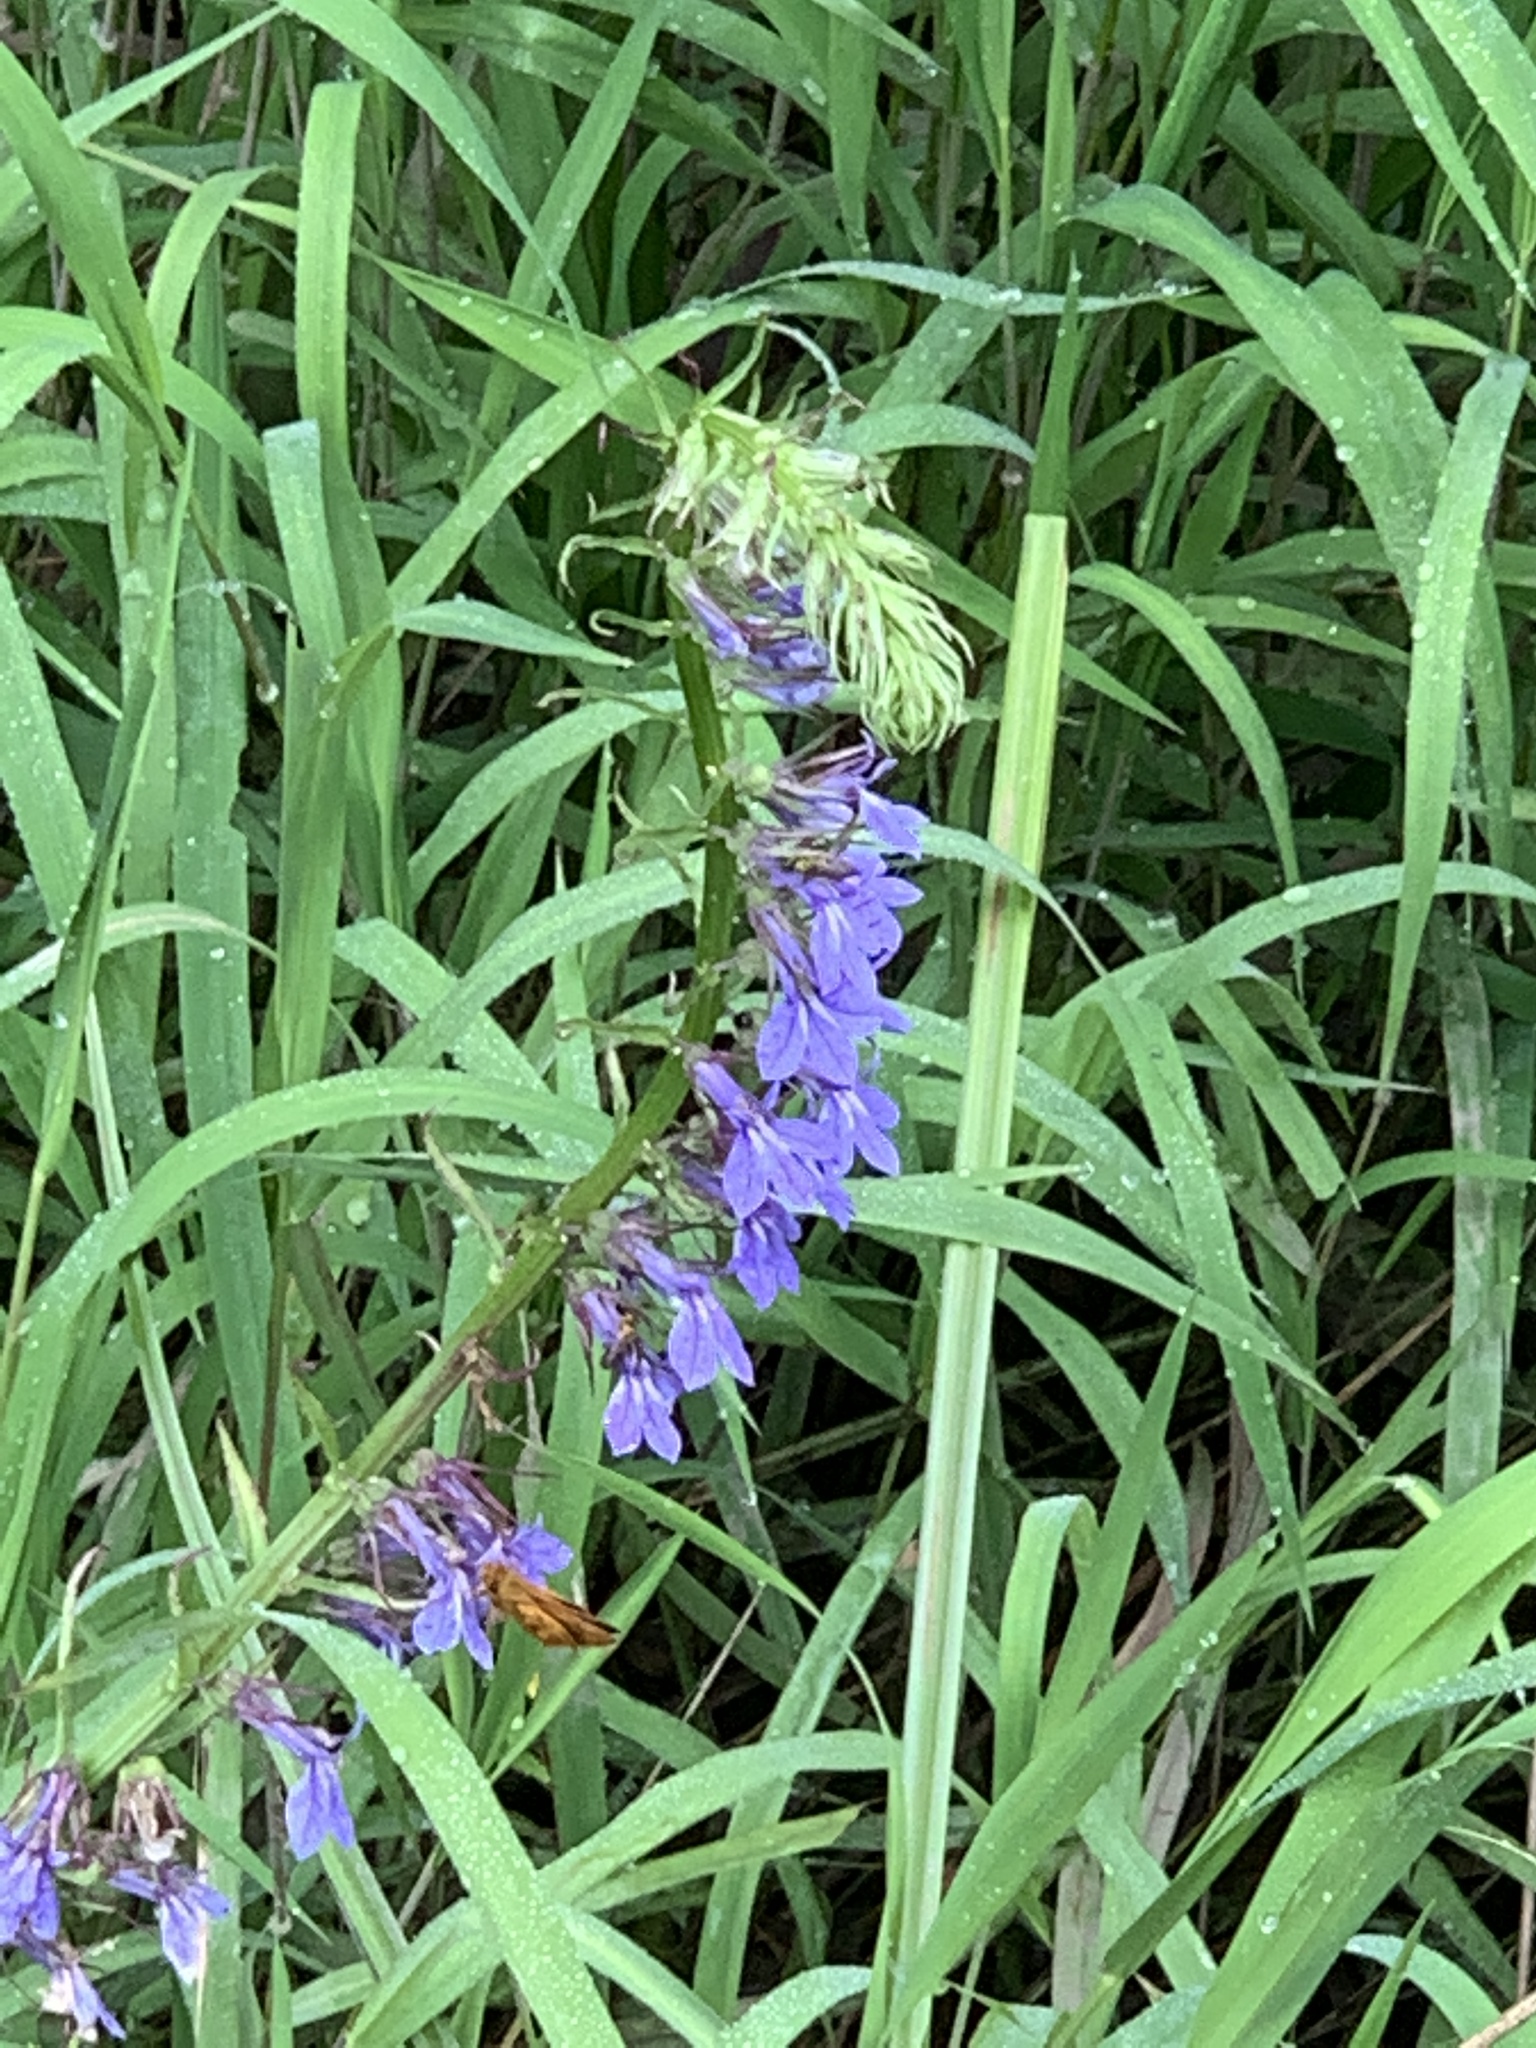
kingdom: Plantae
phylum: Tracheophyta
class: Magnoliopsida
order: Asterales
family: Campanulaceae
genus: Lobelia
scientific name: Lobelia siphilitica
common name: Great lobelia
